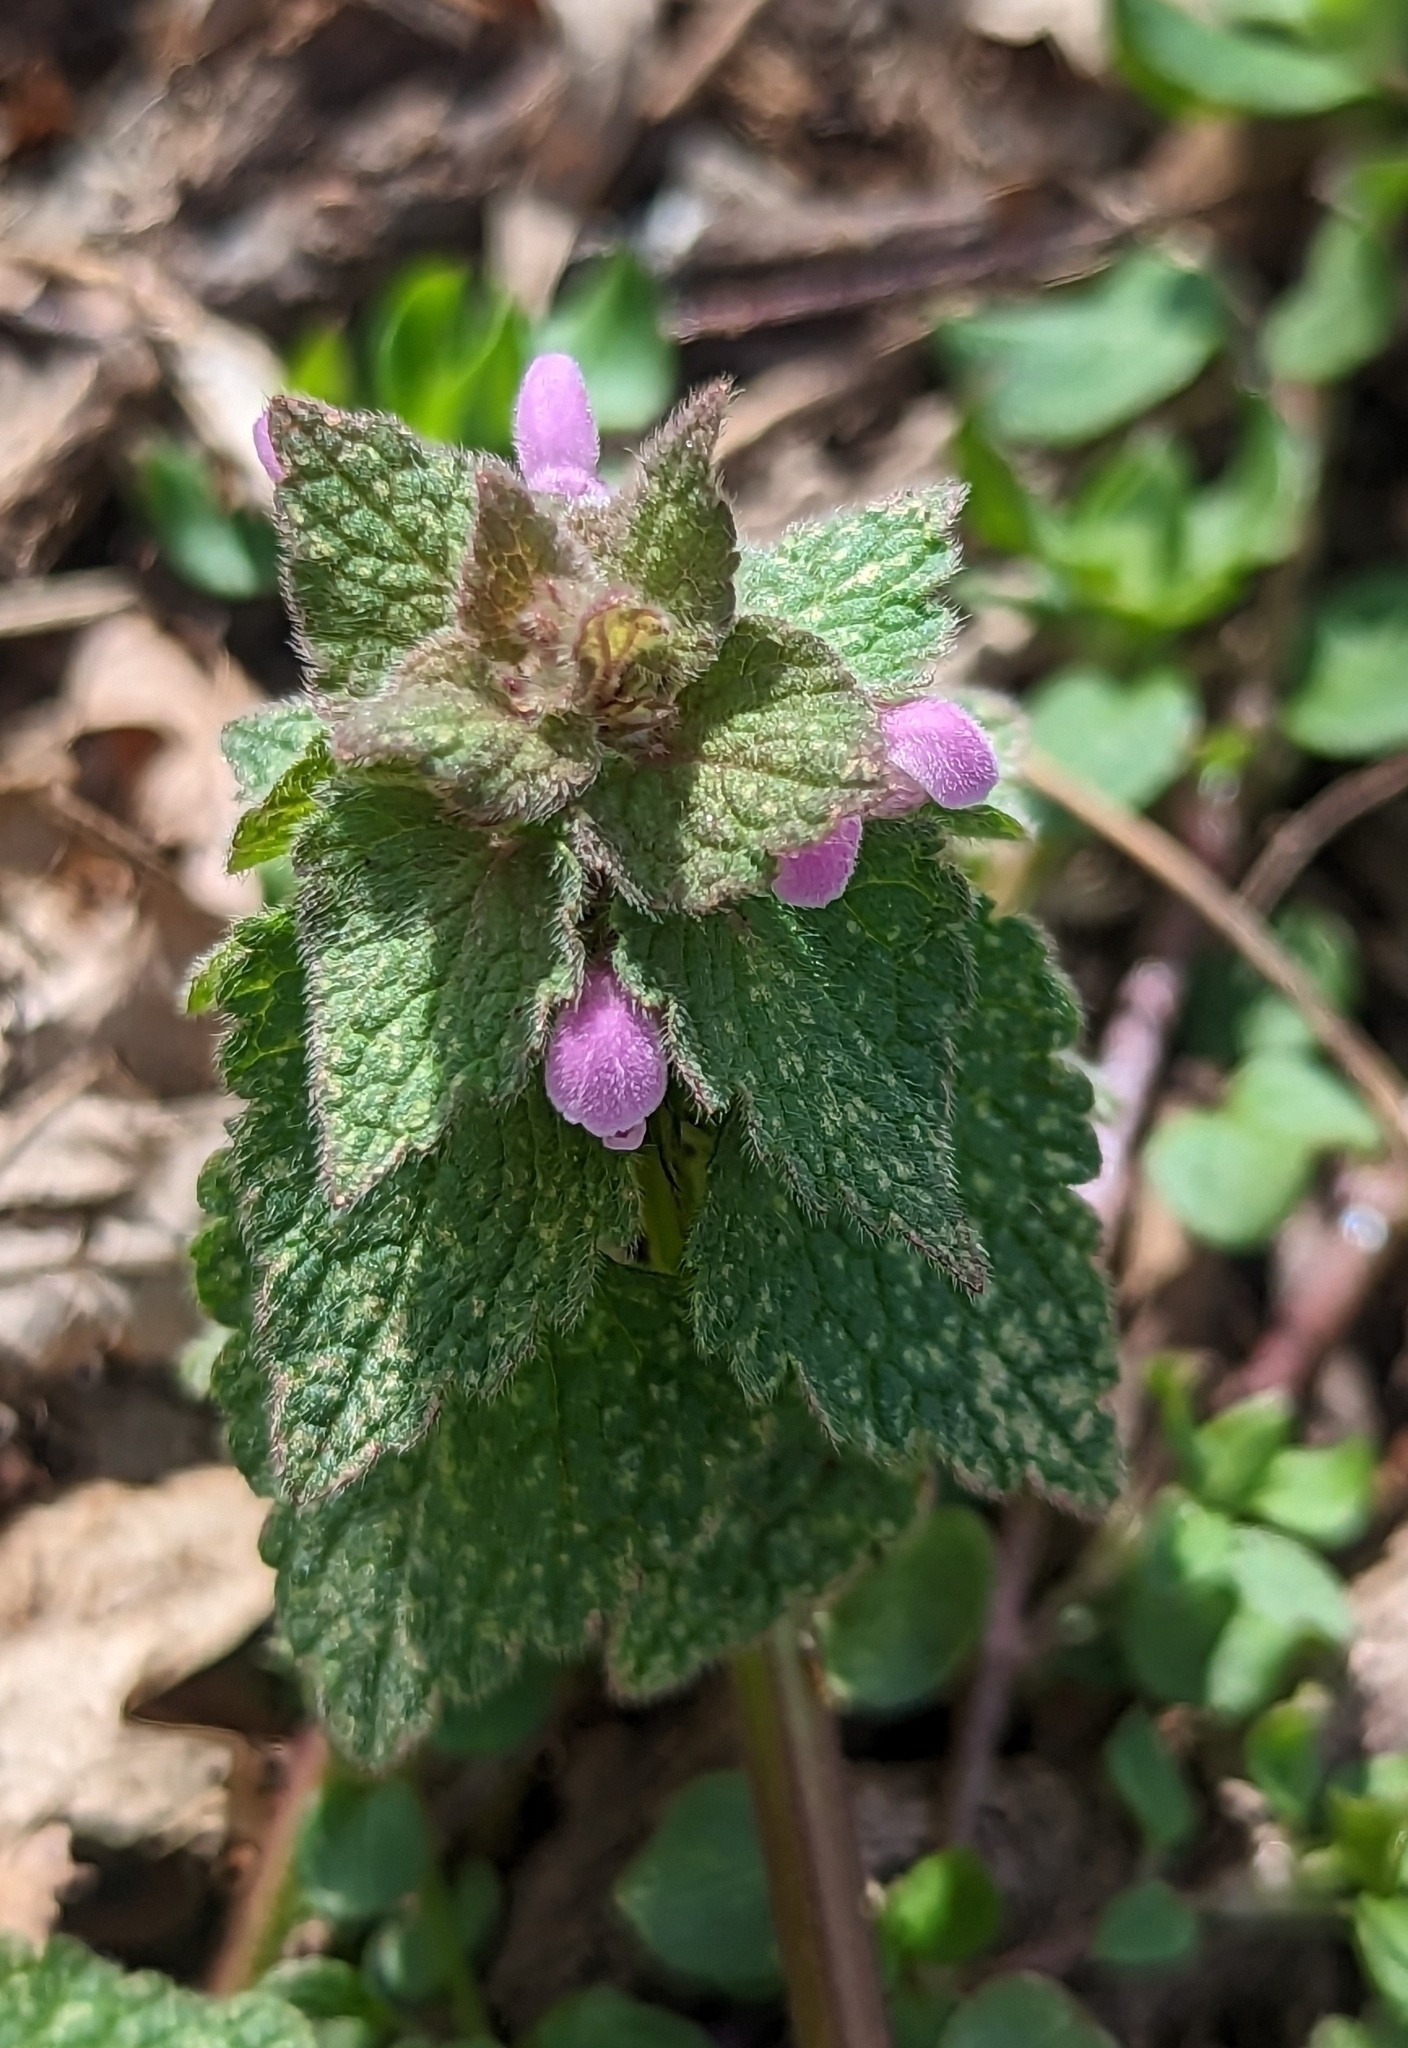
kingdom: Plantae
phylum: Tracheophyta
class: Magnoliopsida
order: Lamiales
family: Lamiaceae
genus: Lamium
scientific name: Lamium purpureum
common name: Red dead-nettle
